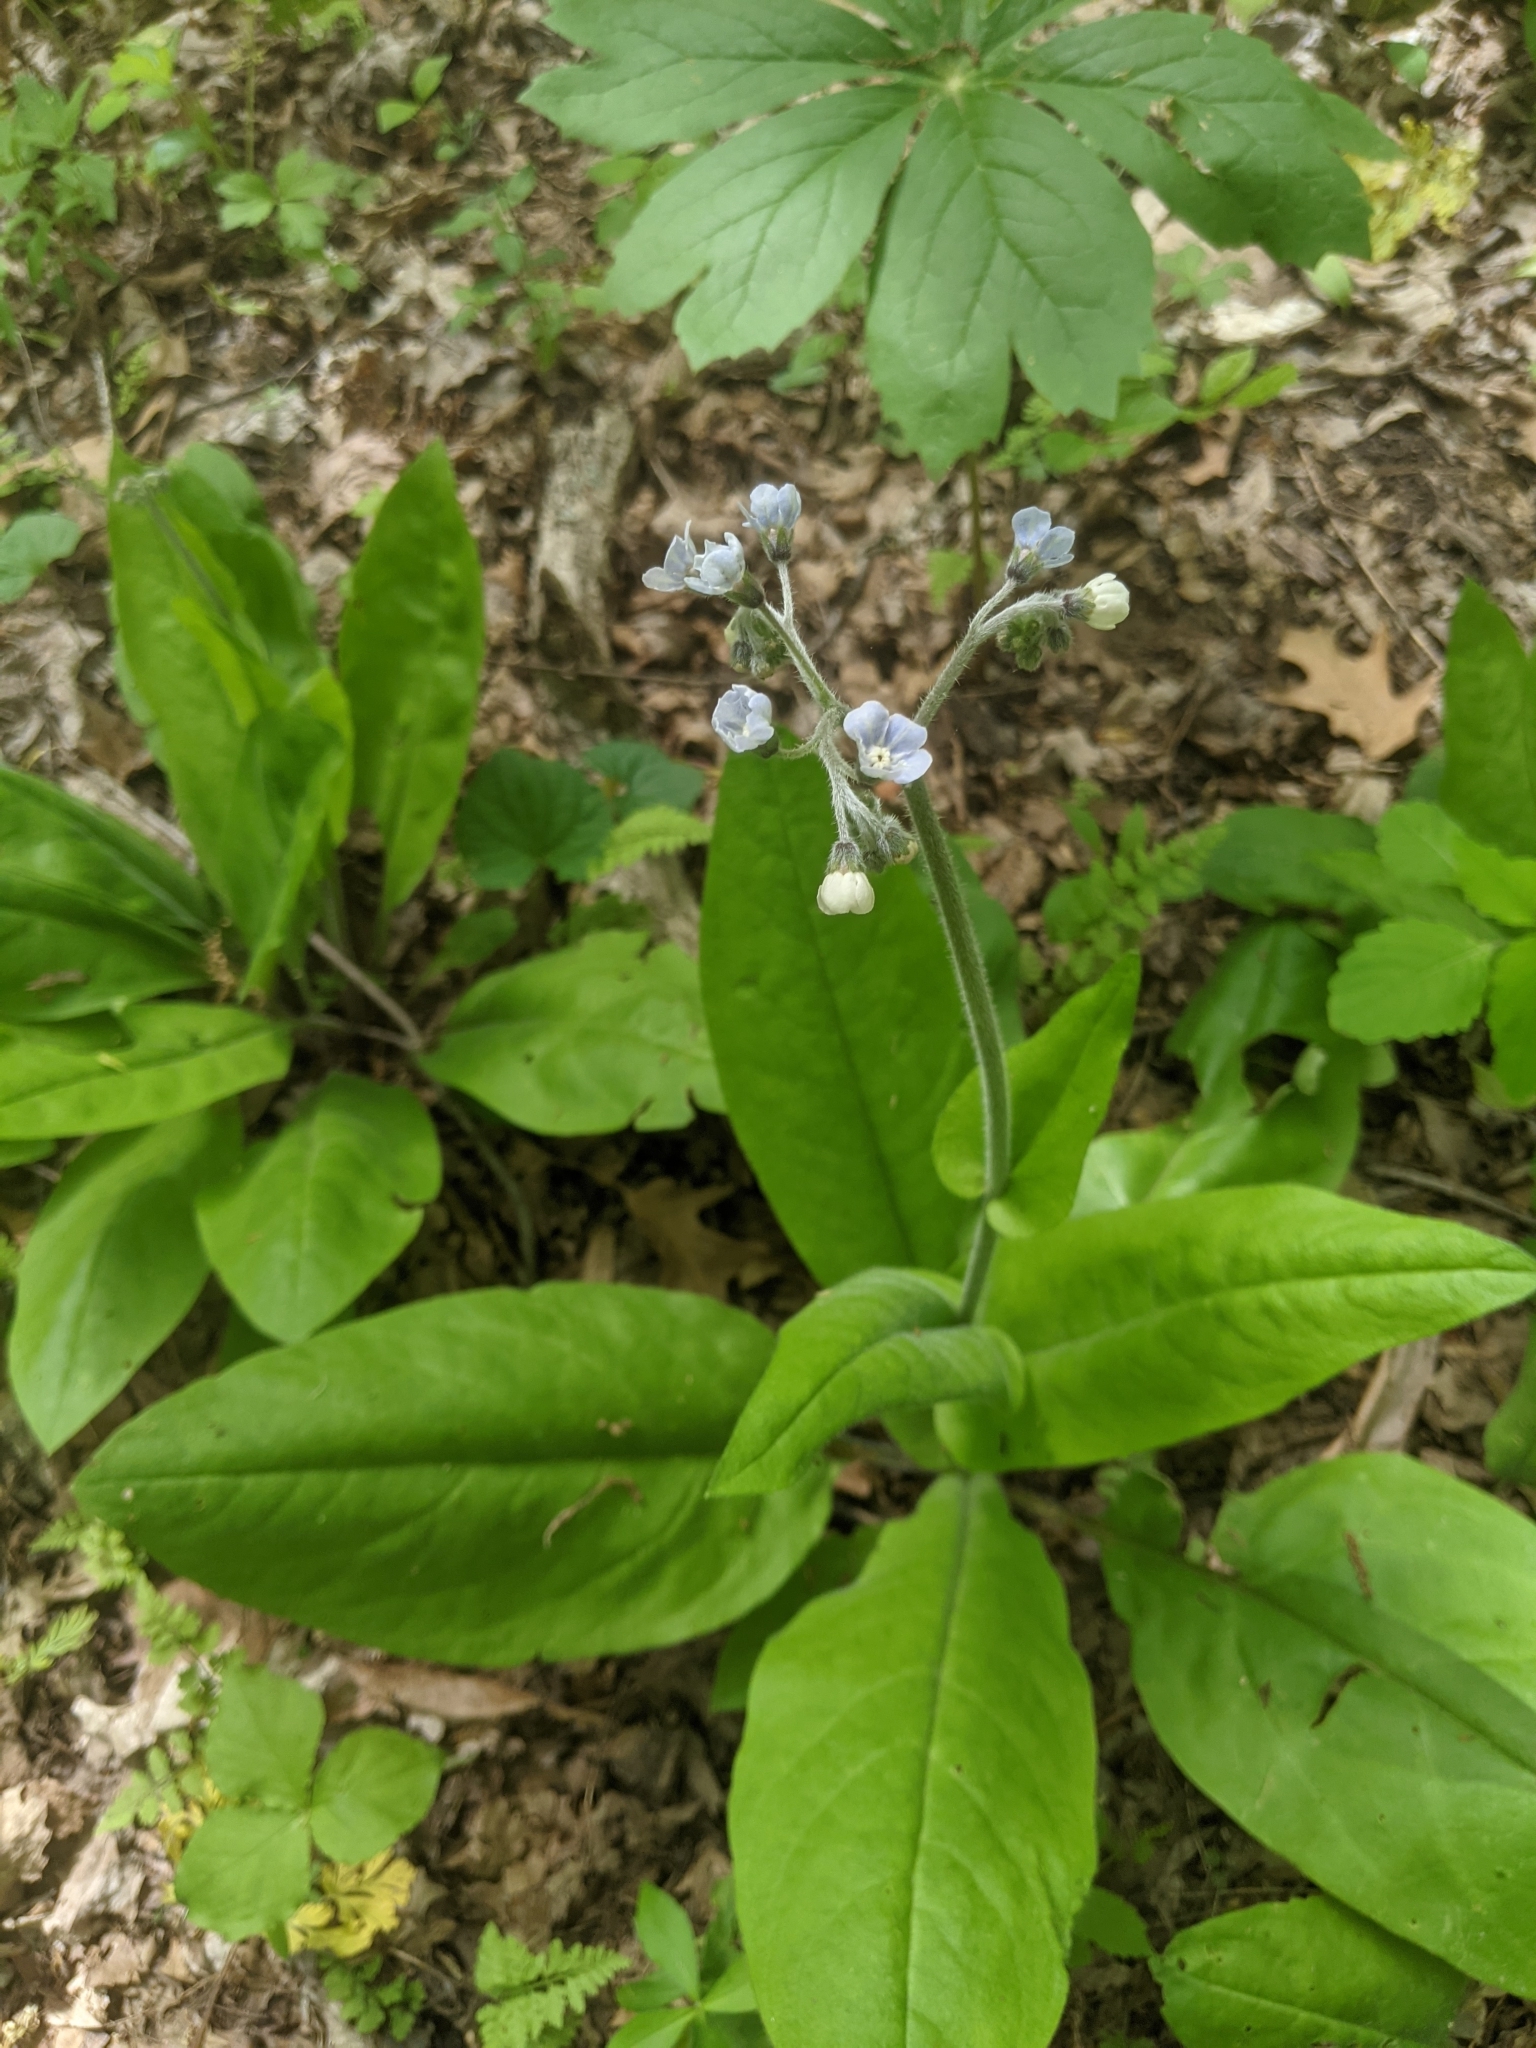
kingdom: Plantae
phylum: Tracheophyta
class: Magnoliopsida
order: Boraginales
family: Boraginaceae
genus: Andersonglossum
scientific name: Andersonglossum virginianum
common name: Wild comfrey
